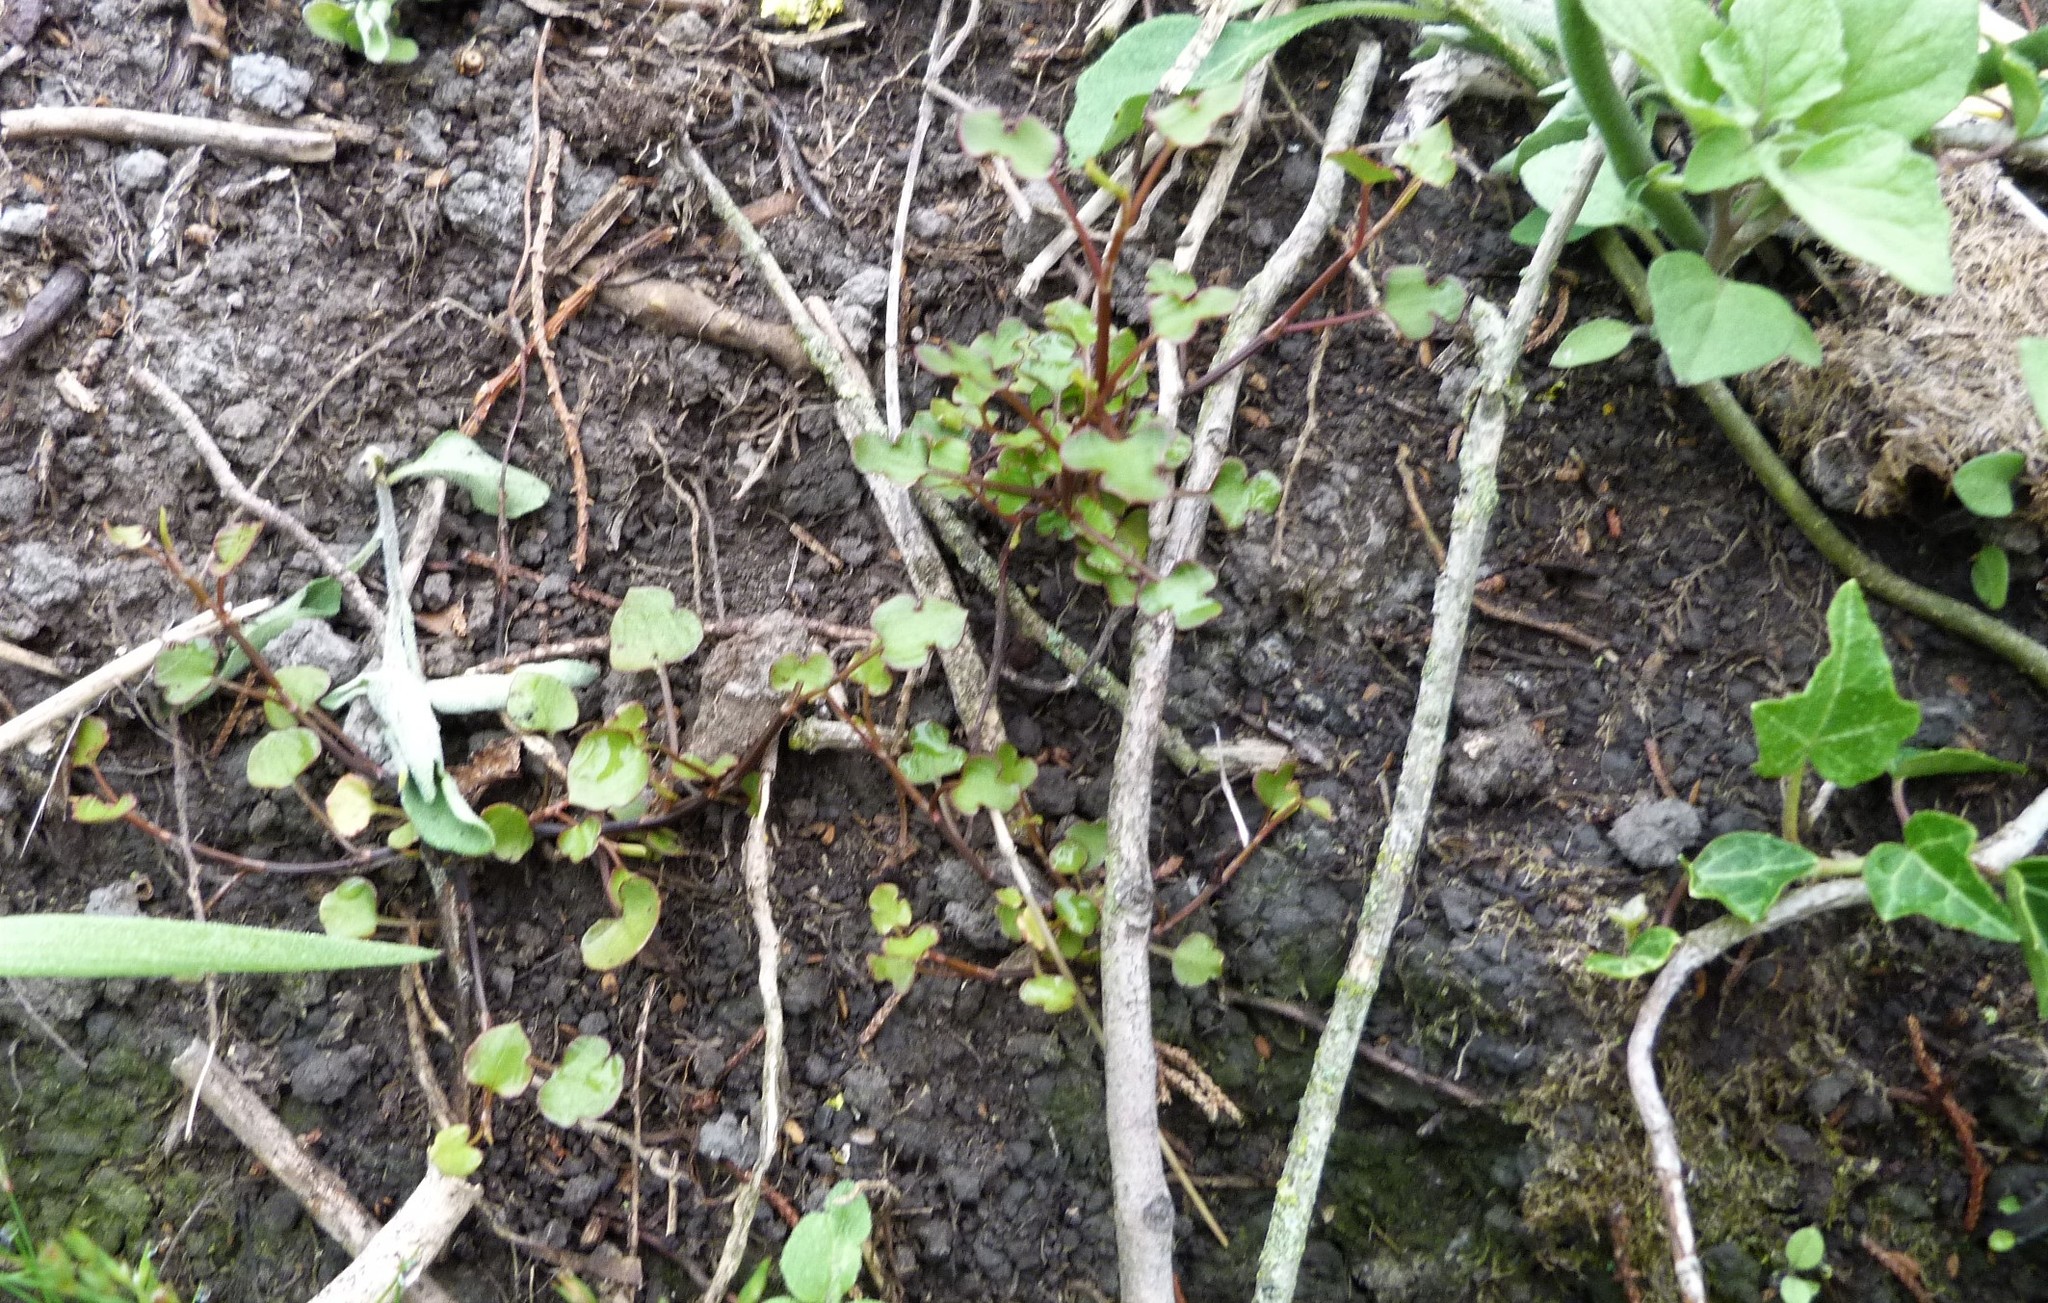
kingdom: Plantae
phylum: Tracheophyta
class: Magnoliopsida
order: Caryophyllales
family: Polygonaceae
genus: Muehlenbeckia
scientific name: Muehlenbeckia australis
